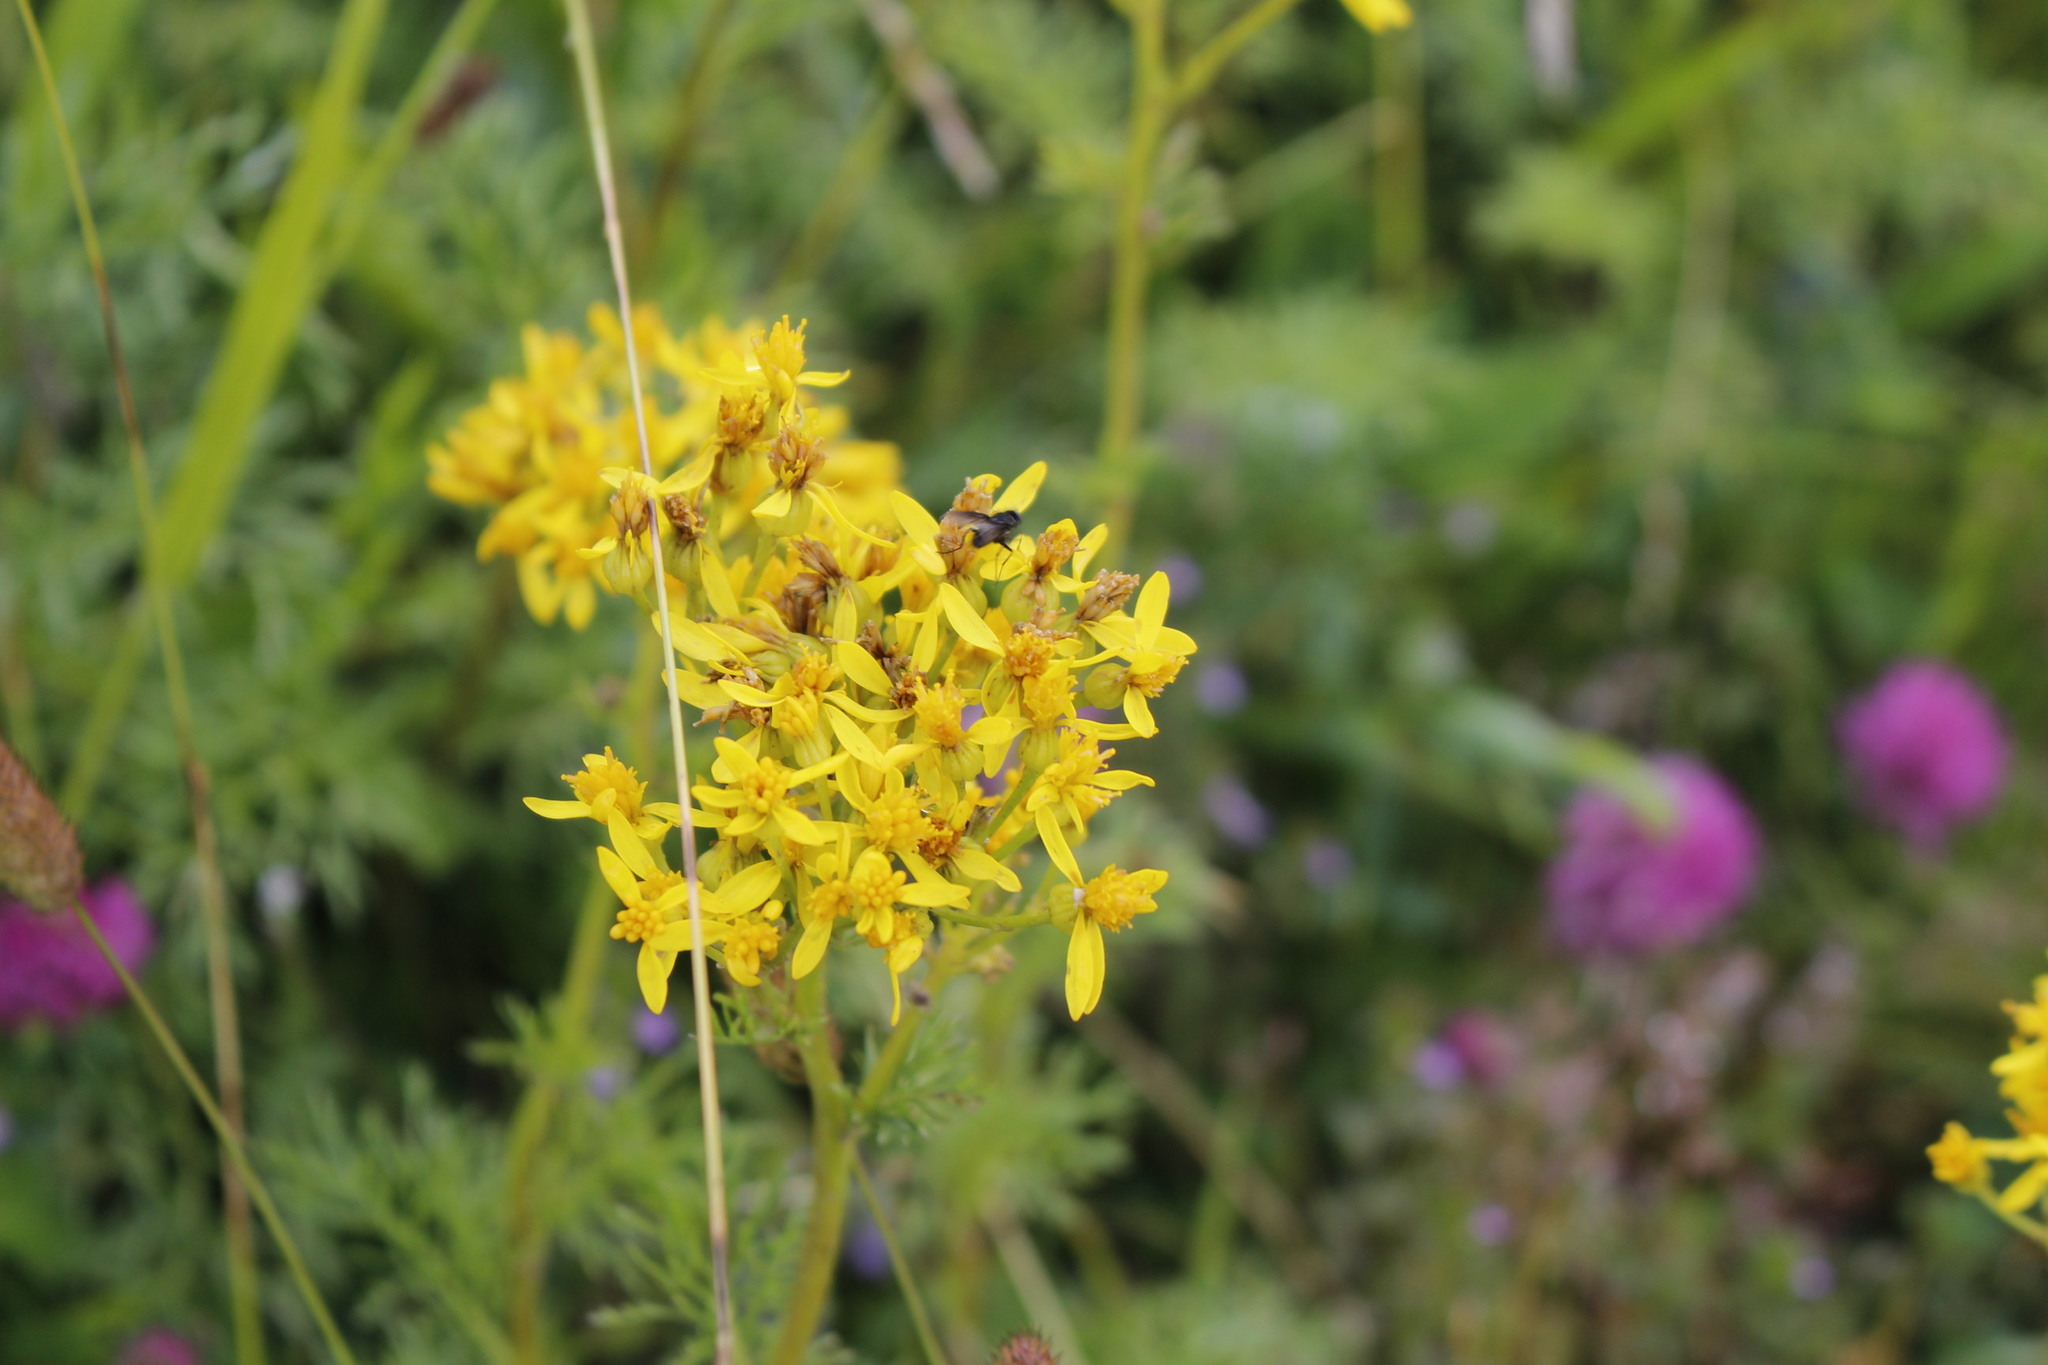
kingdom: Plantae
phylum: Tracheophyta
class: Magnoliopsida
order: Asterales
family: Asteraceae
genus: Jacobaea
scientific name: Jacobaea adonidifolia
